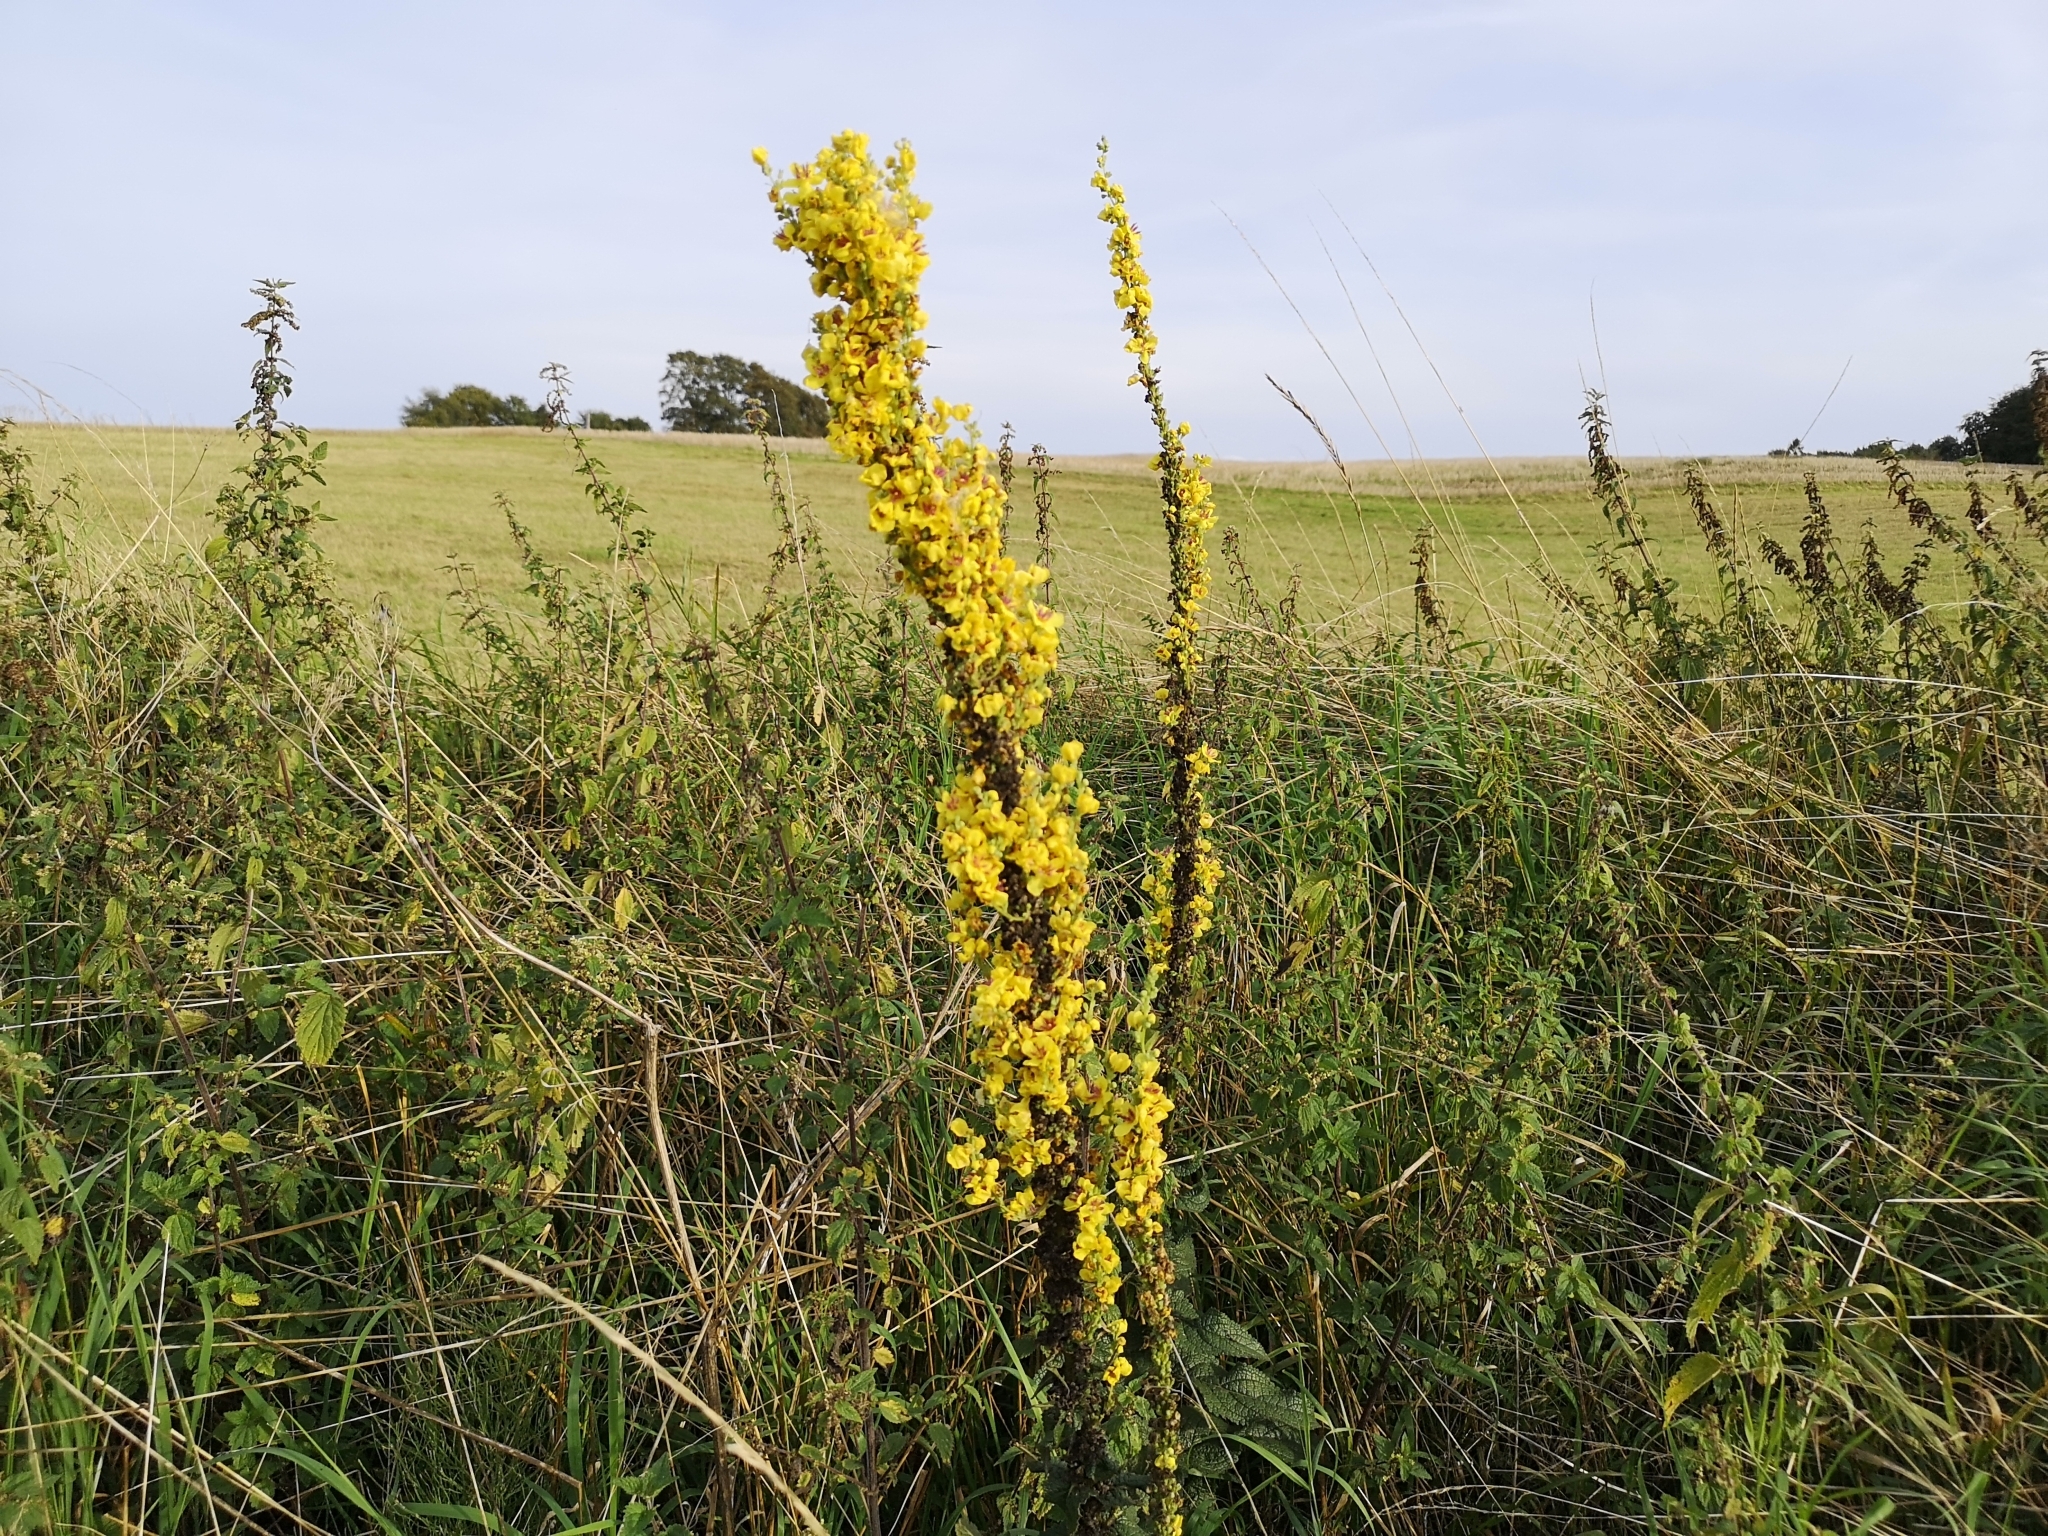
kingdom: Plantae
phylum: Tracheophyta
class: Magnoliopsida
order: Lamiales
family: Scrophulariaceae
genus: Verbascum
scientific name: Verbascum nigrum
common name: Dark mullein
